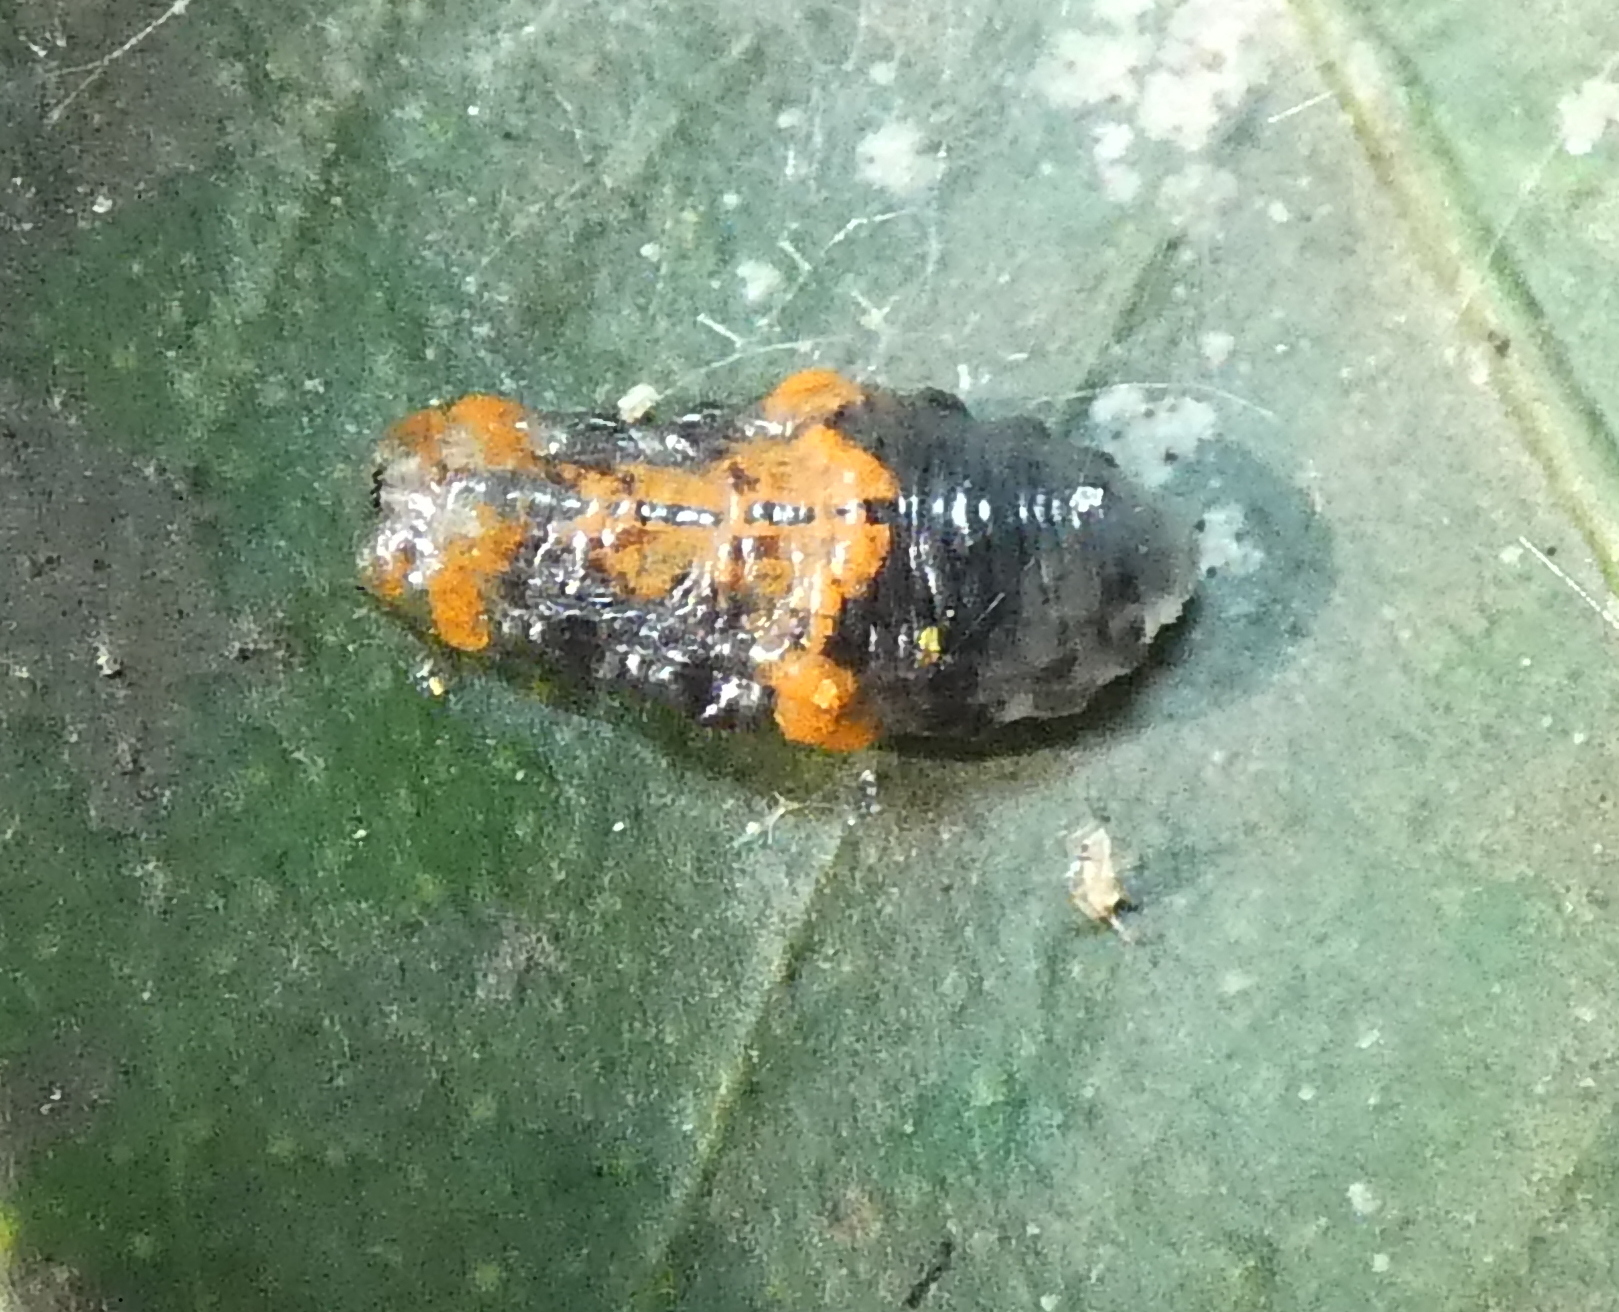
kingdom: Animalia
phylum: Arthropoda
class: Insecta
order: Diptera
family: Syrphidae
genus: Ocyptamus
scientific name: Ocyptamus gastrostactus
